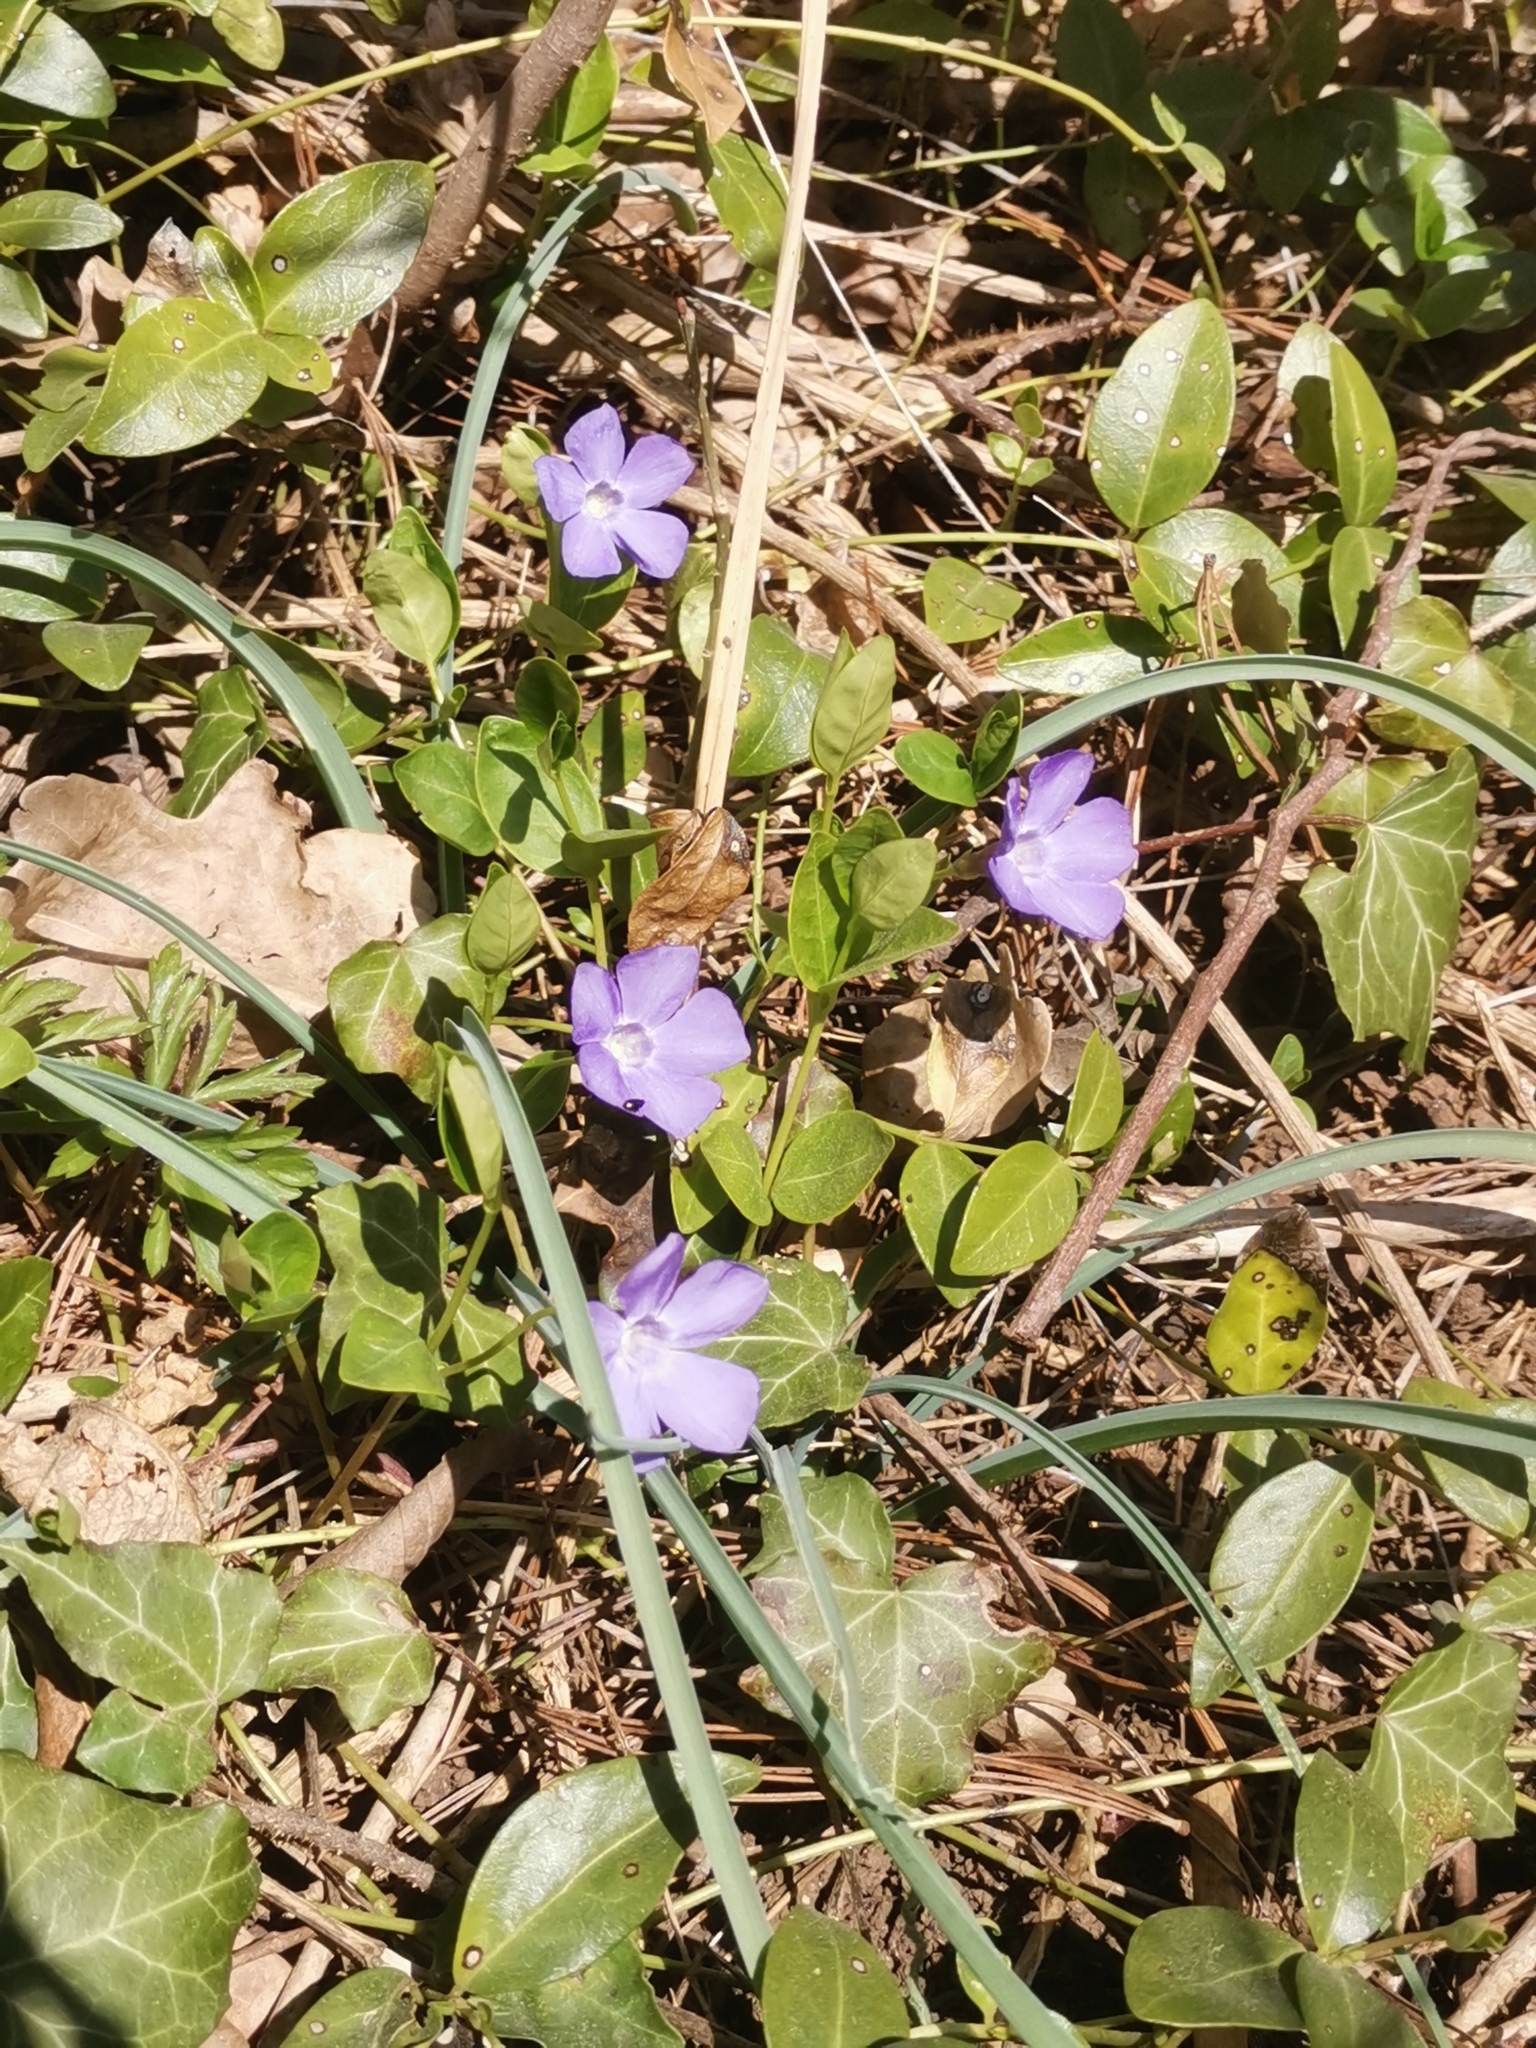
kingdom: Plantae
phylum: Tracheophyta
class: Magnoliopsida
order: Gentianales
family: Apocynaceae
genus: Vinca
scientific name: Vinca minor
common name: Lesser periwinkle
